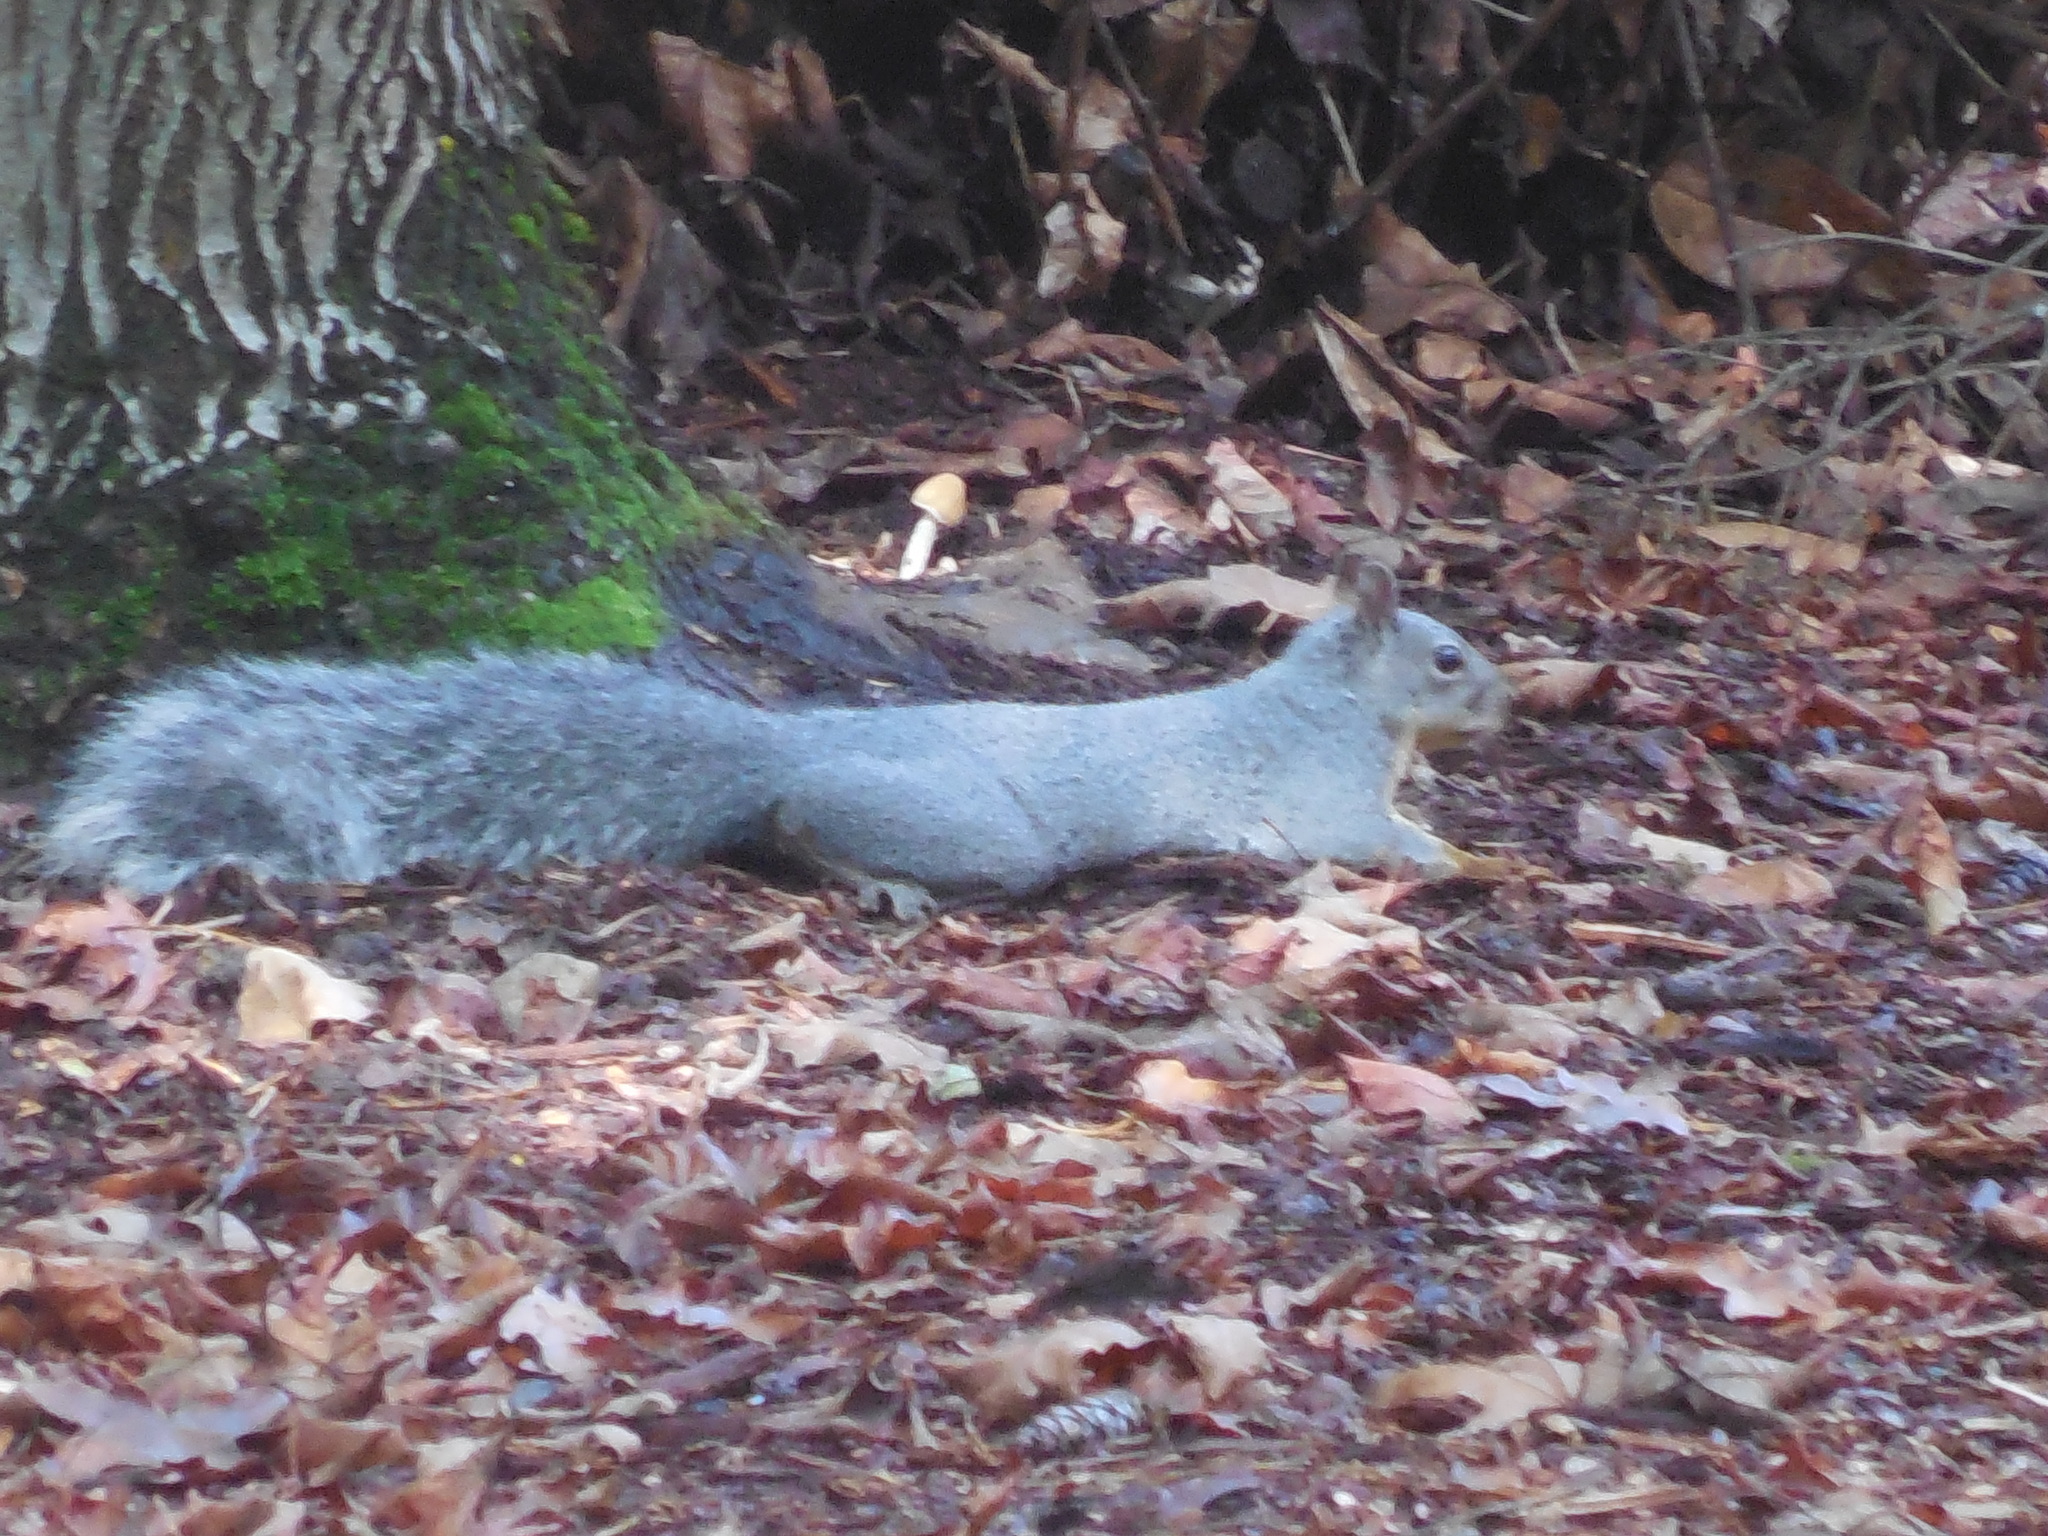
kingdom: Animalia
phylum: Chordata
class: Mammalia
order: Rodentia
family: Sciuridae
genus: Sciurus
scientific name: Sciurus griseus
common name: Western gray squirrel
